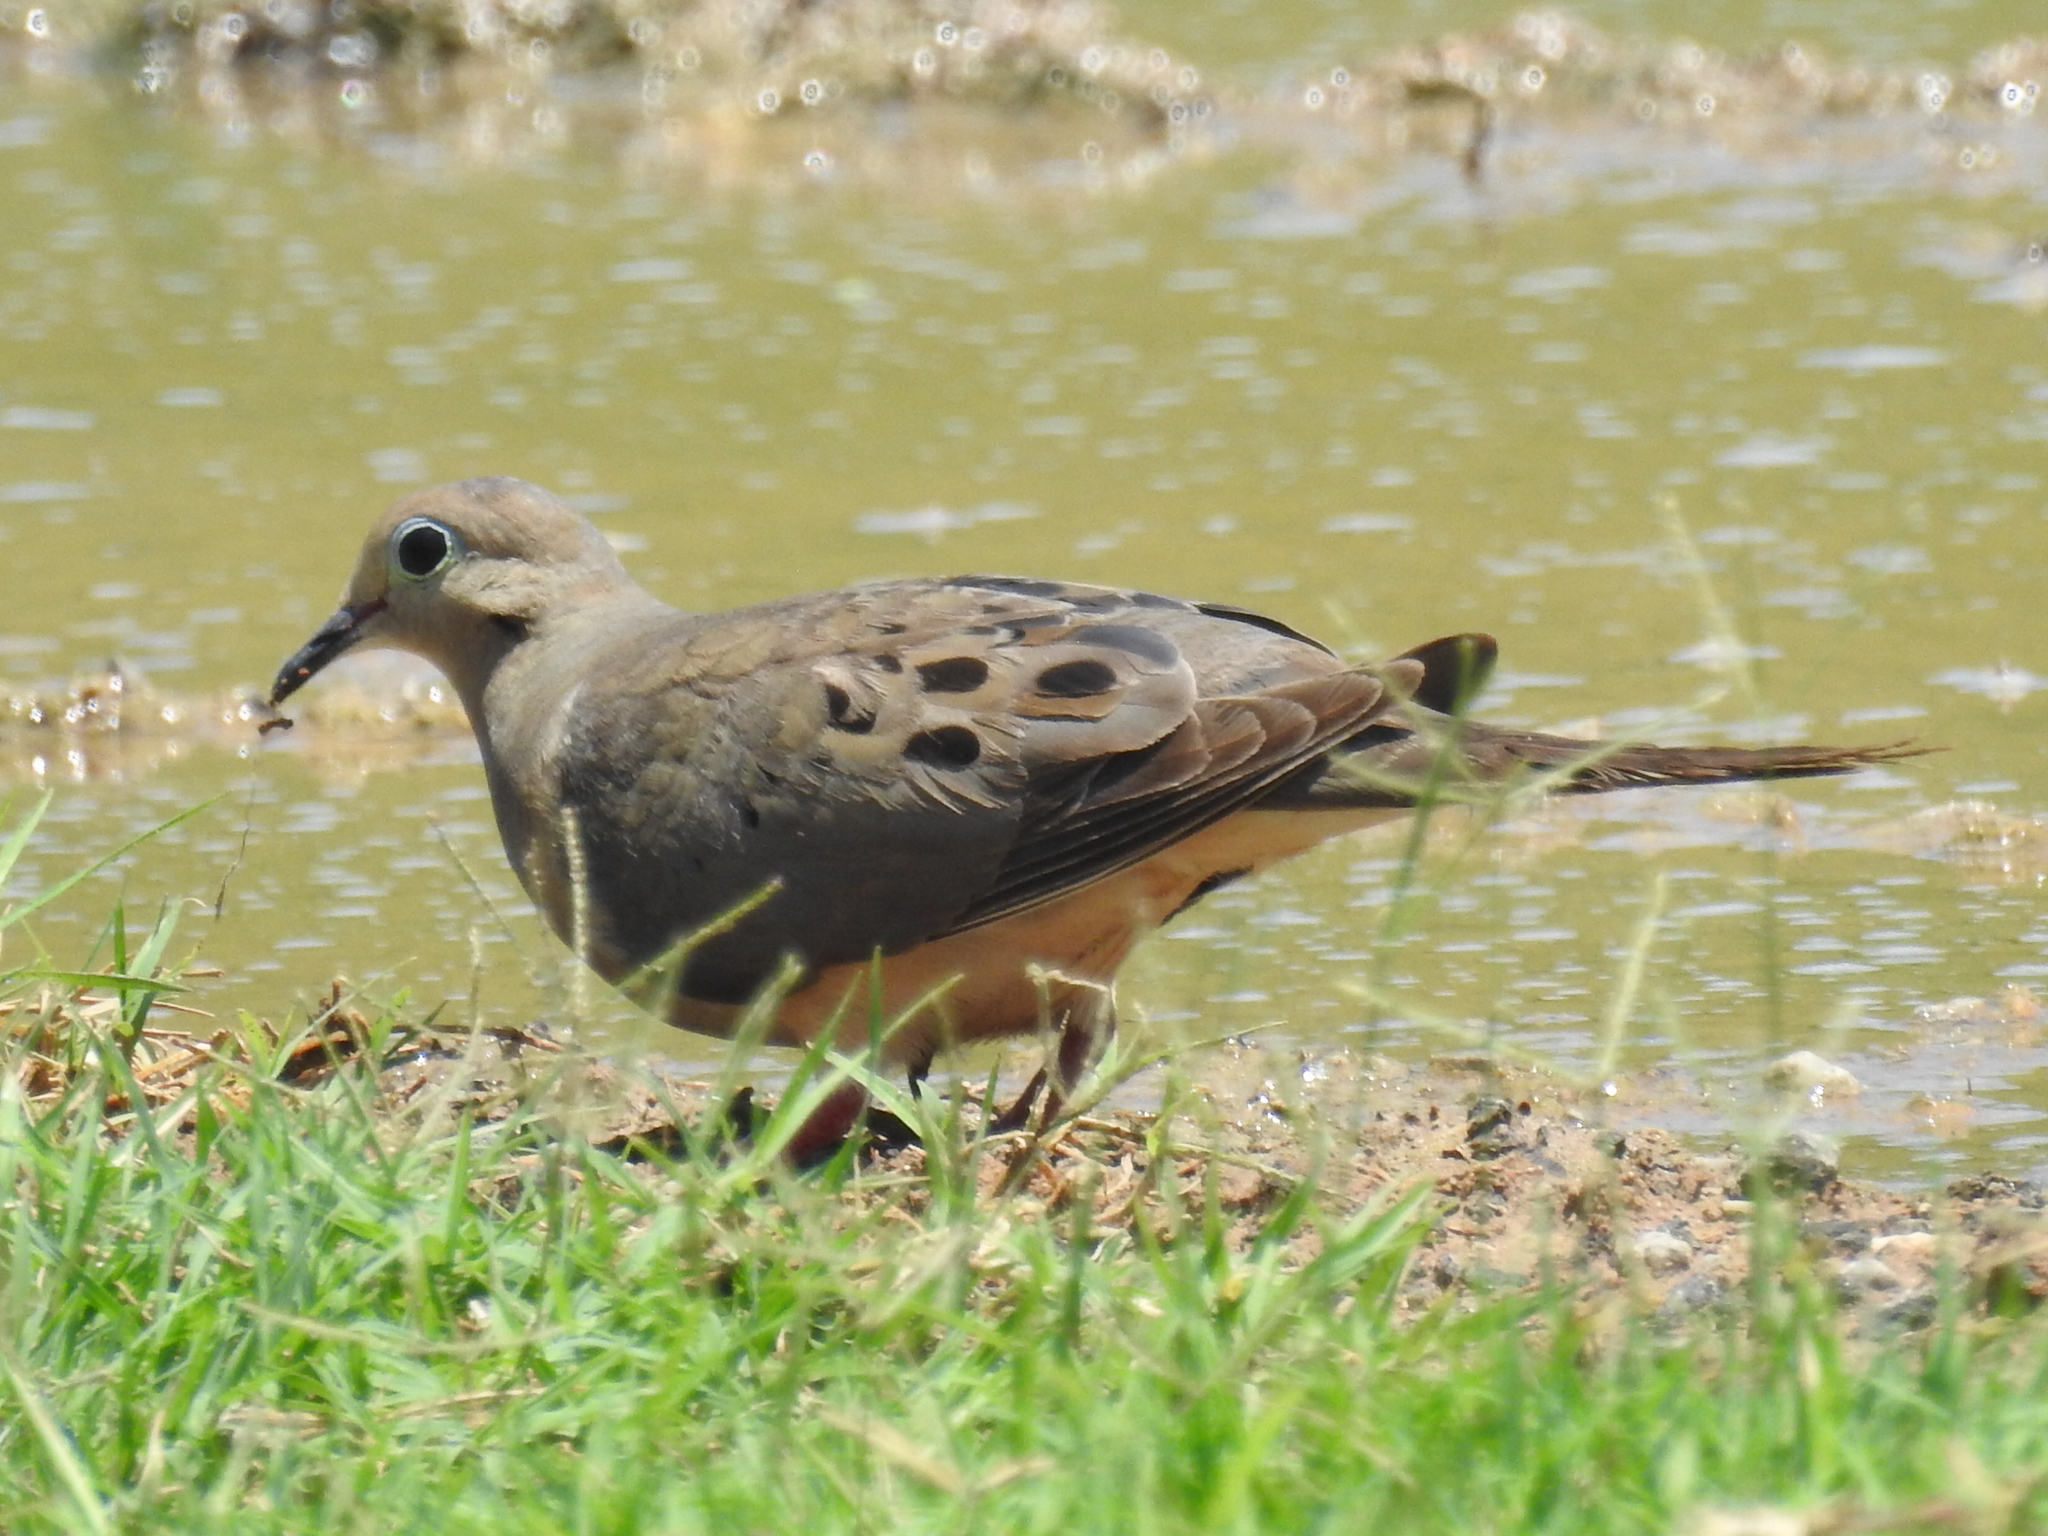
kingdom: Animalia
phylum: Chordata
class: Aves
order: Columbiformes
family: Columbidae
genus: Zenaida
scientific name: Zenaida macroura
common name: Mourning dove
